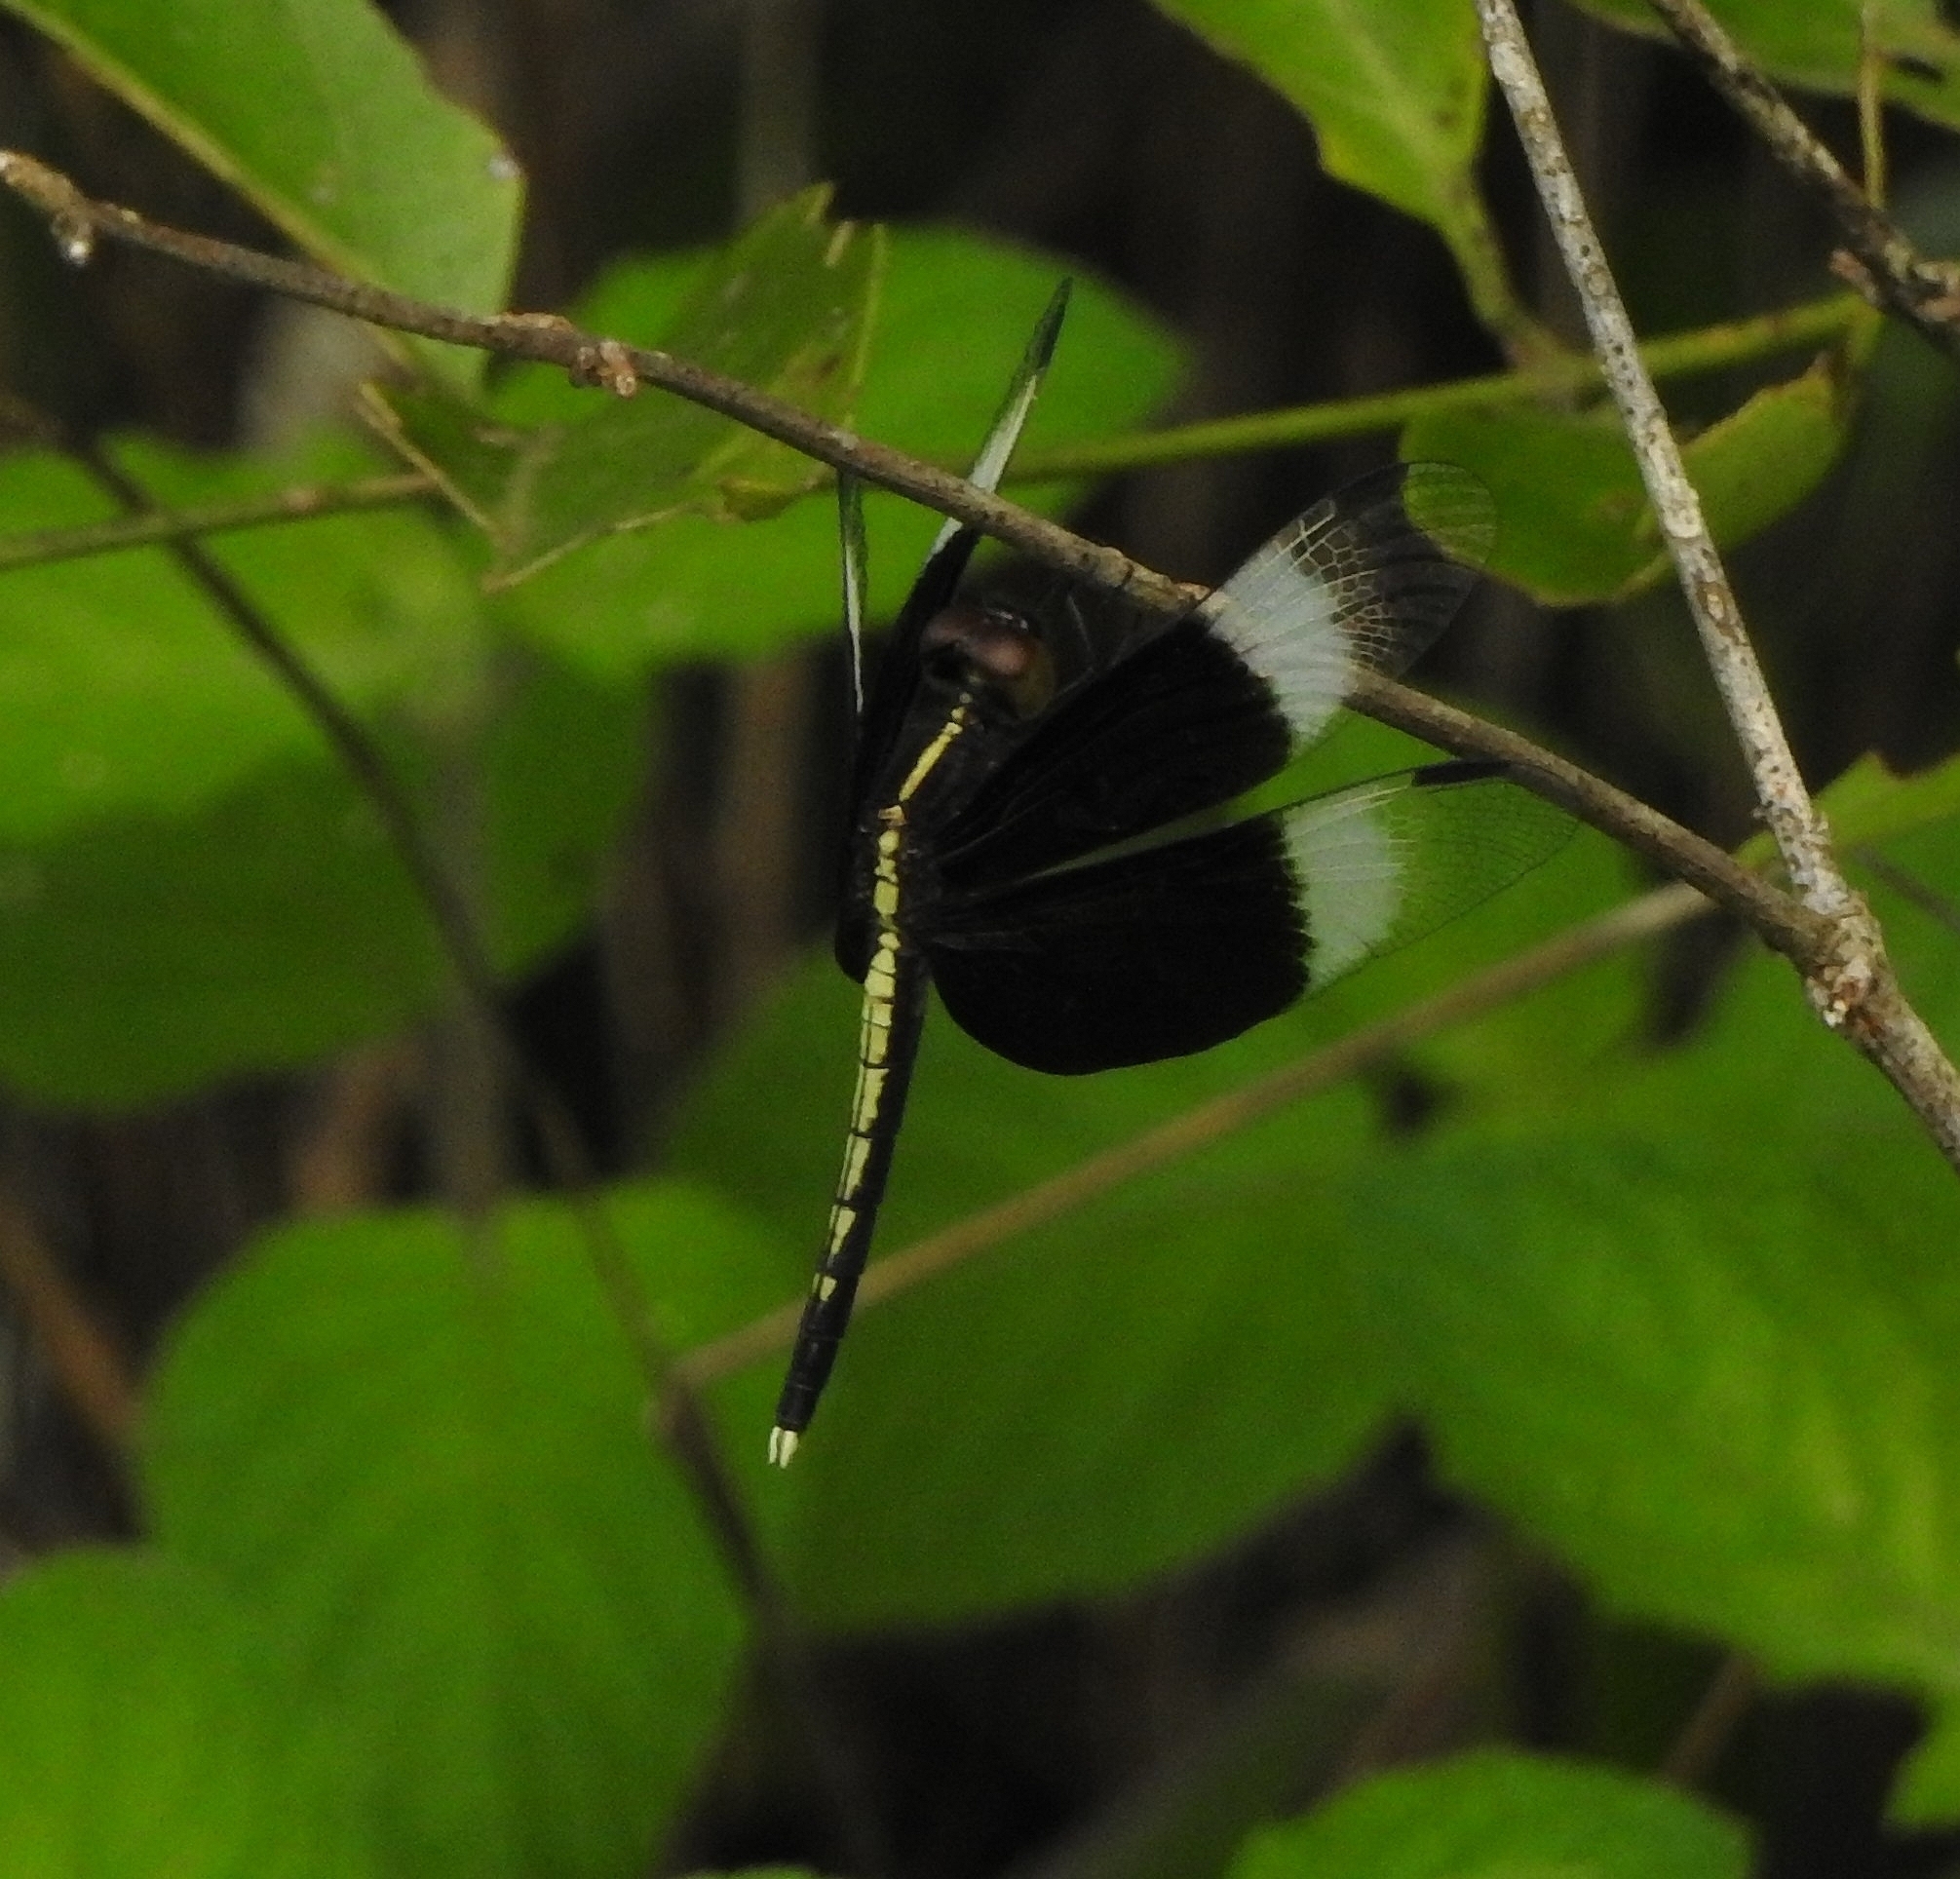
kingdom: Animalia
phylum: Arthropoda
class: Insecta
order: Odonata
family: Libellulidae
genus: Neurothemis
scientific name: Neurothemis tullia
